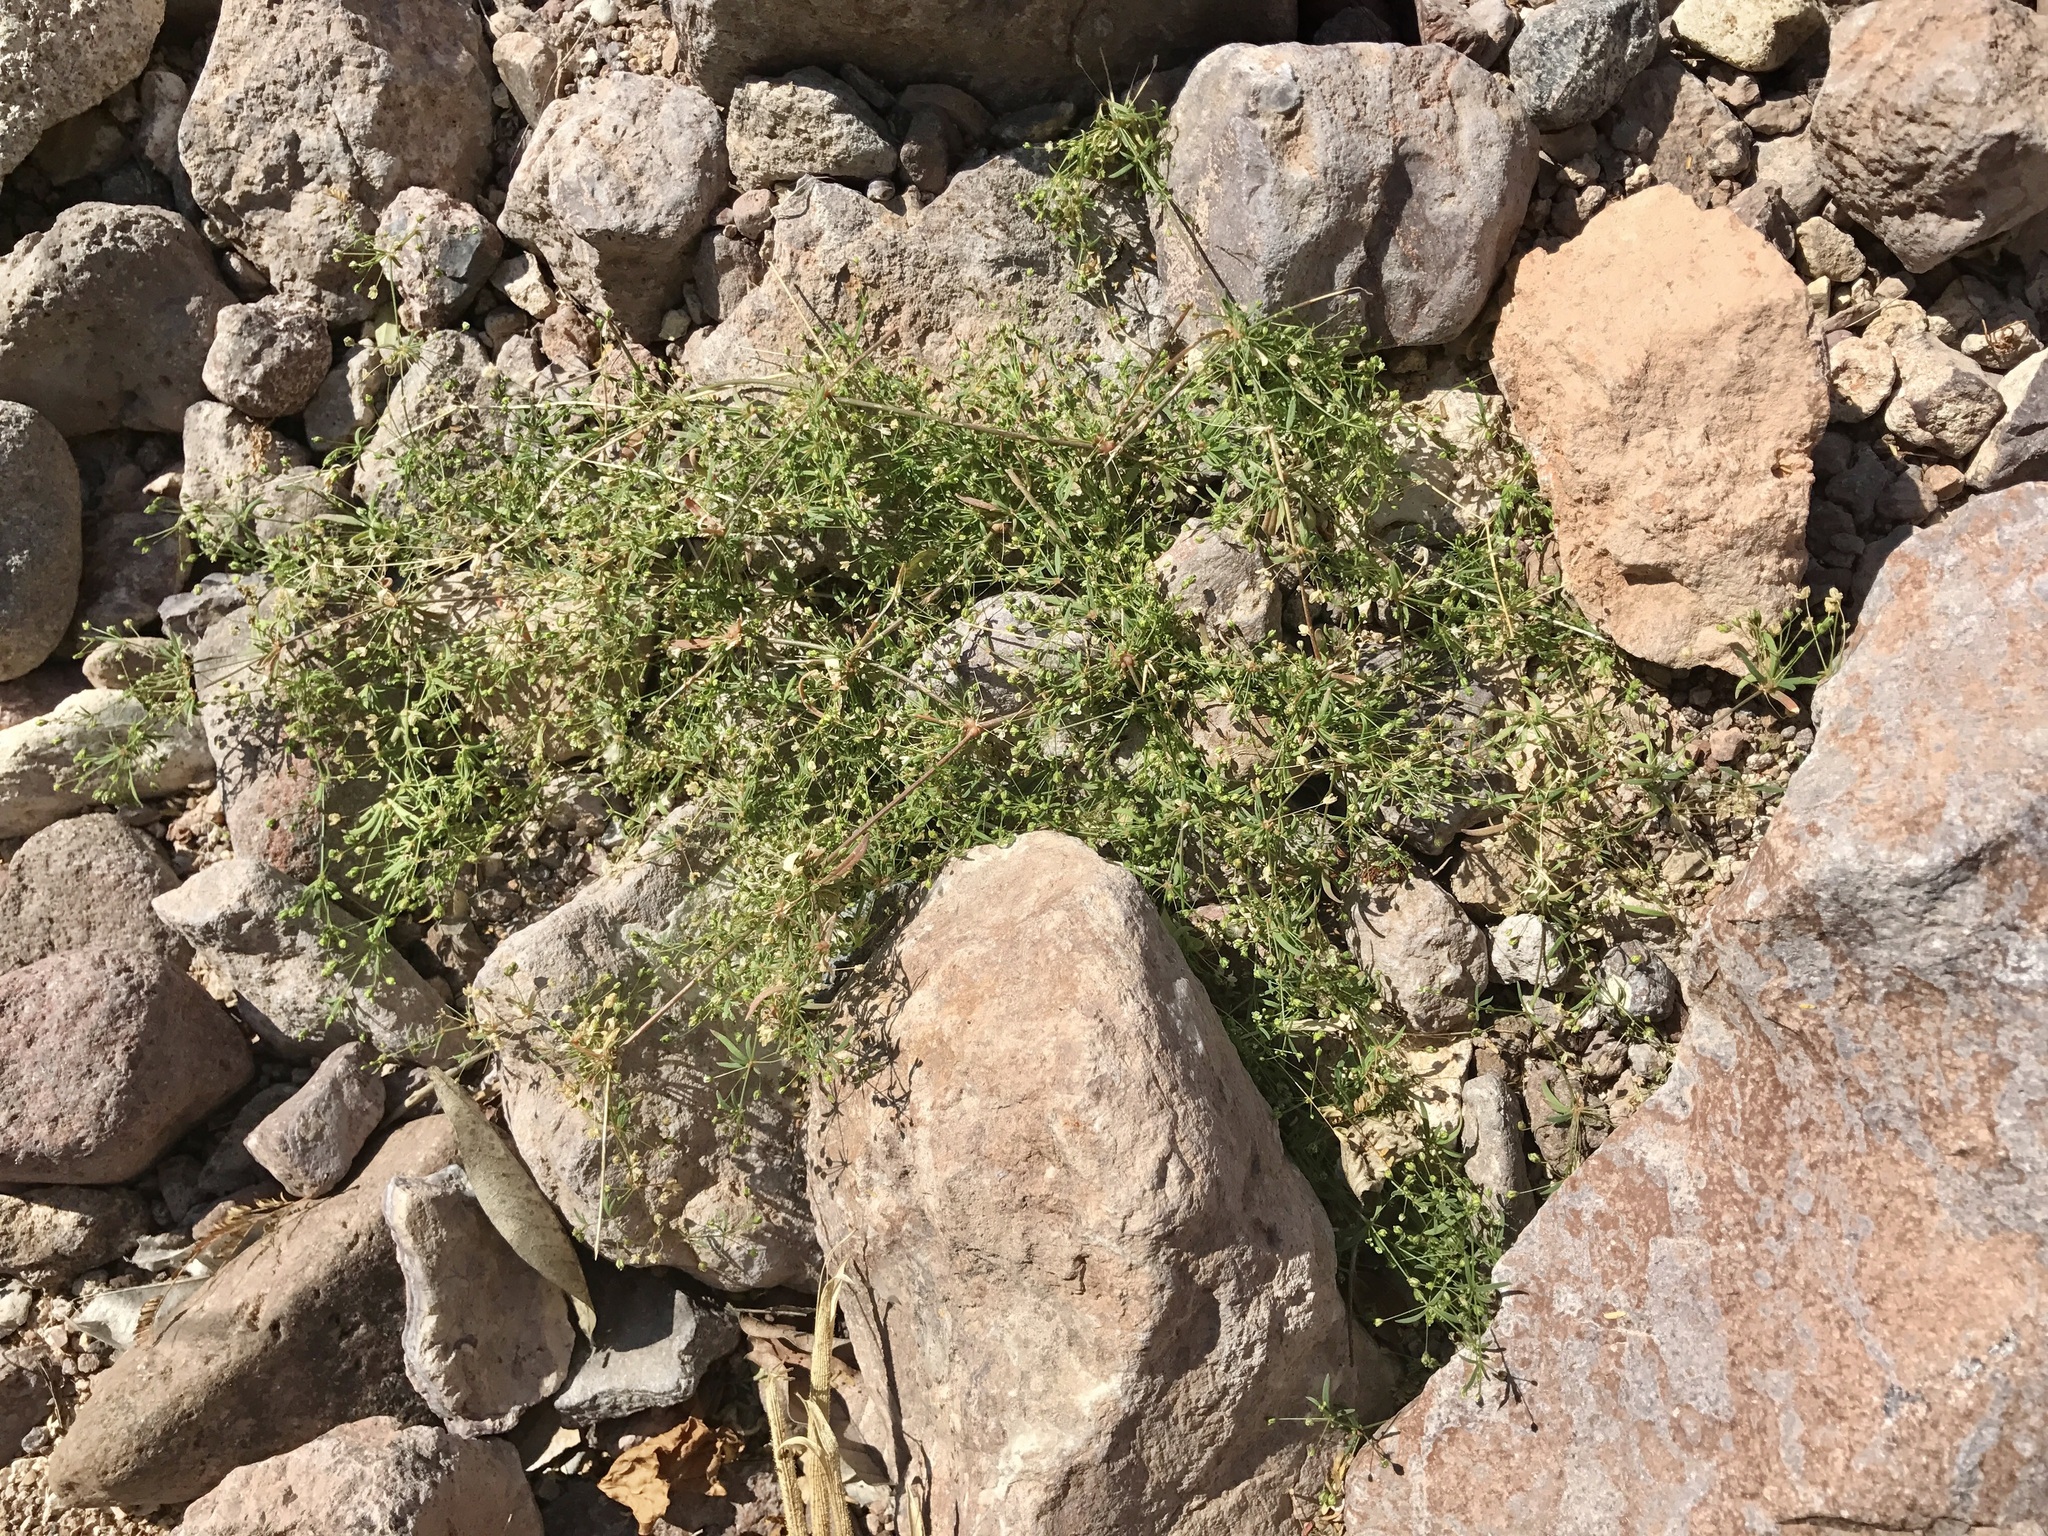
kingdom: Plantae
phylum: Tracheophyta
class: Magnoliopsida
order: Caryophyllales
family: Molluginaceae
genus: Mollugo
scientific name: Mollugo verticillata
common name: Green carpetweed
